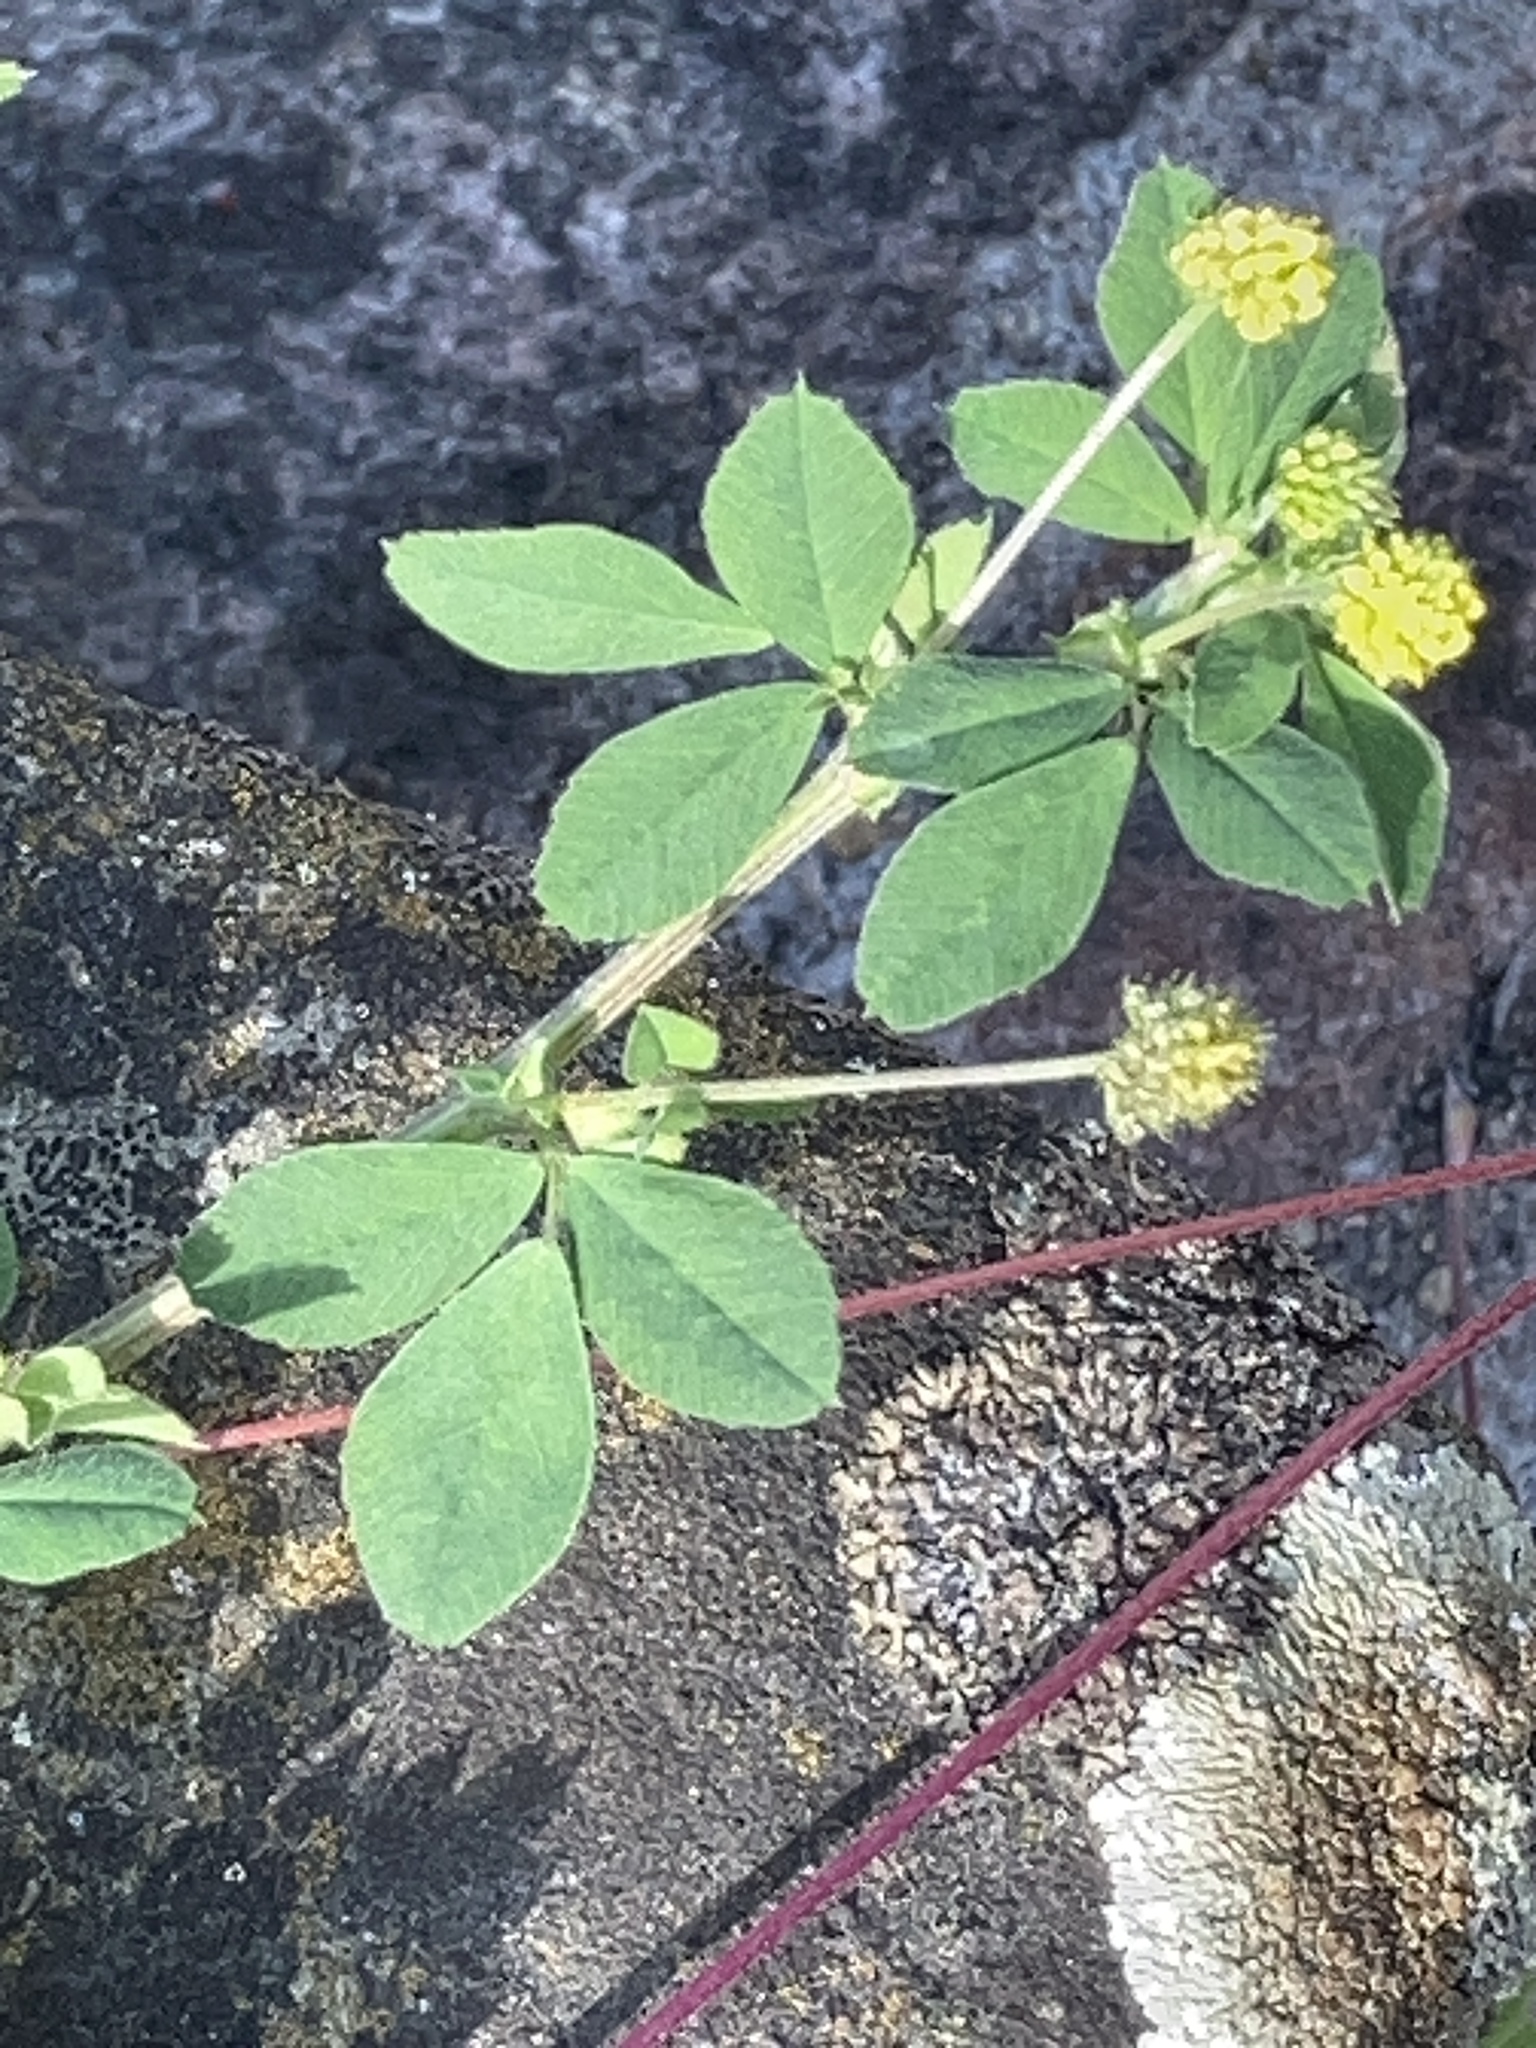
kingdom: Plantae
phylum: Tracheophyta
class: Magnoliopsida
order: Fabales
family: Fabaceae
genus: Medicago
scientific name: Medicago lupulina
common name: Black medick
